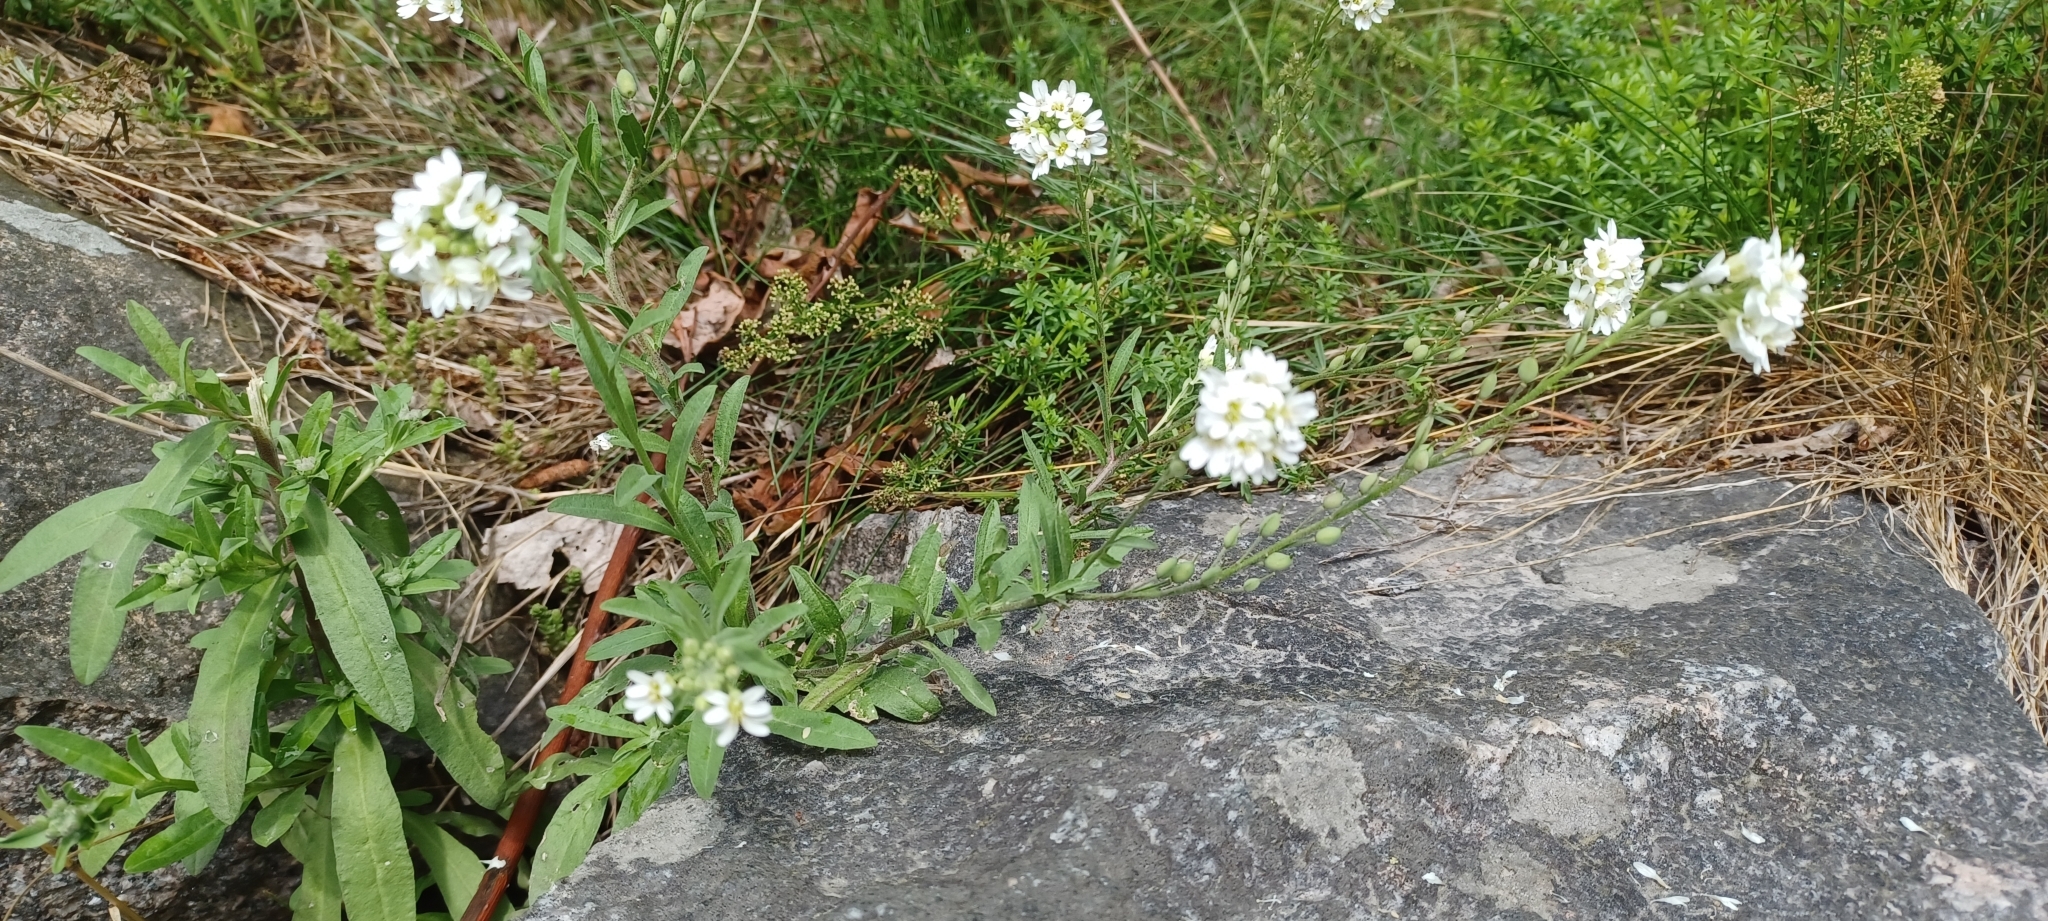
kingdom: Plantae
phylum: Tracheophyta
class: Magnoliopsida
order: Brassicales
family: Brassicaceae
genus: Berteroa
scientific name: Berteroa incana
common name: Hoary alison
